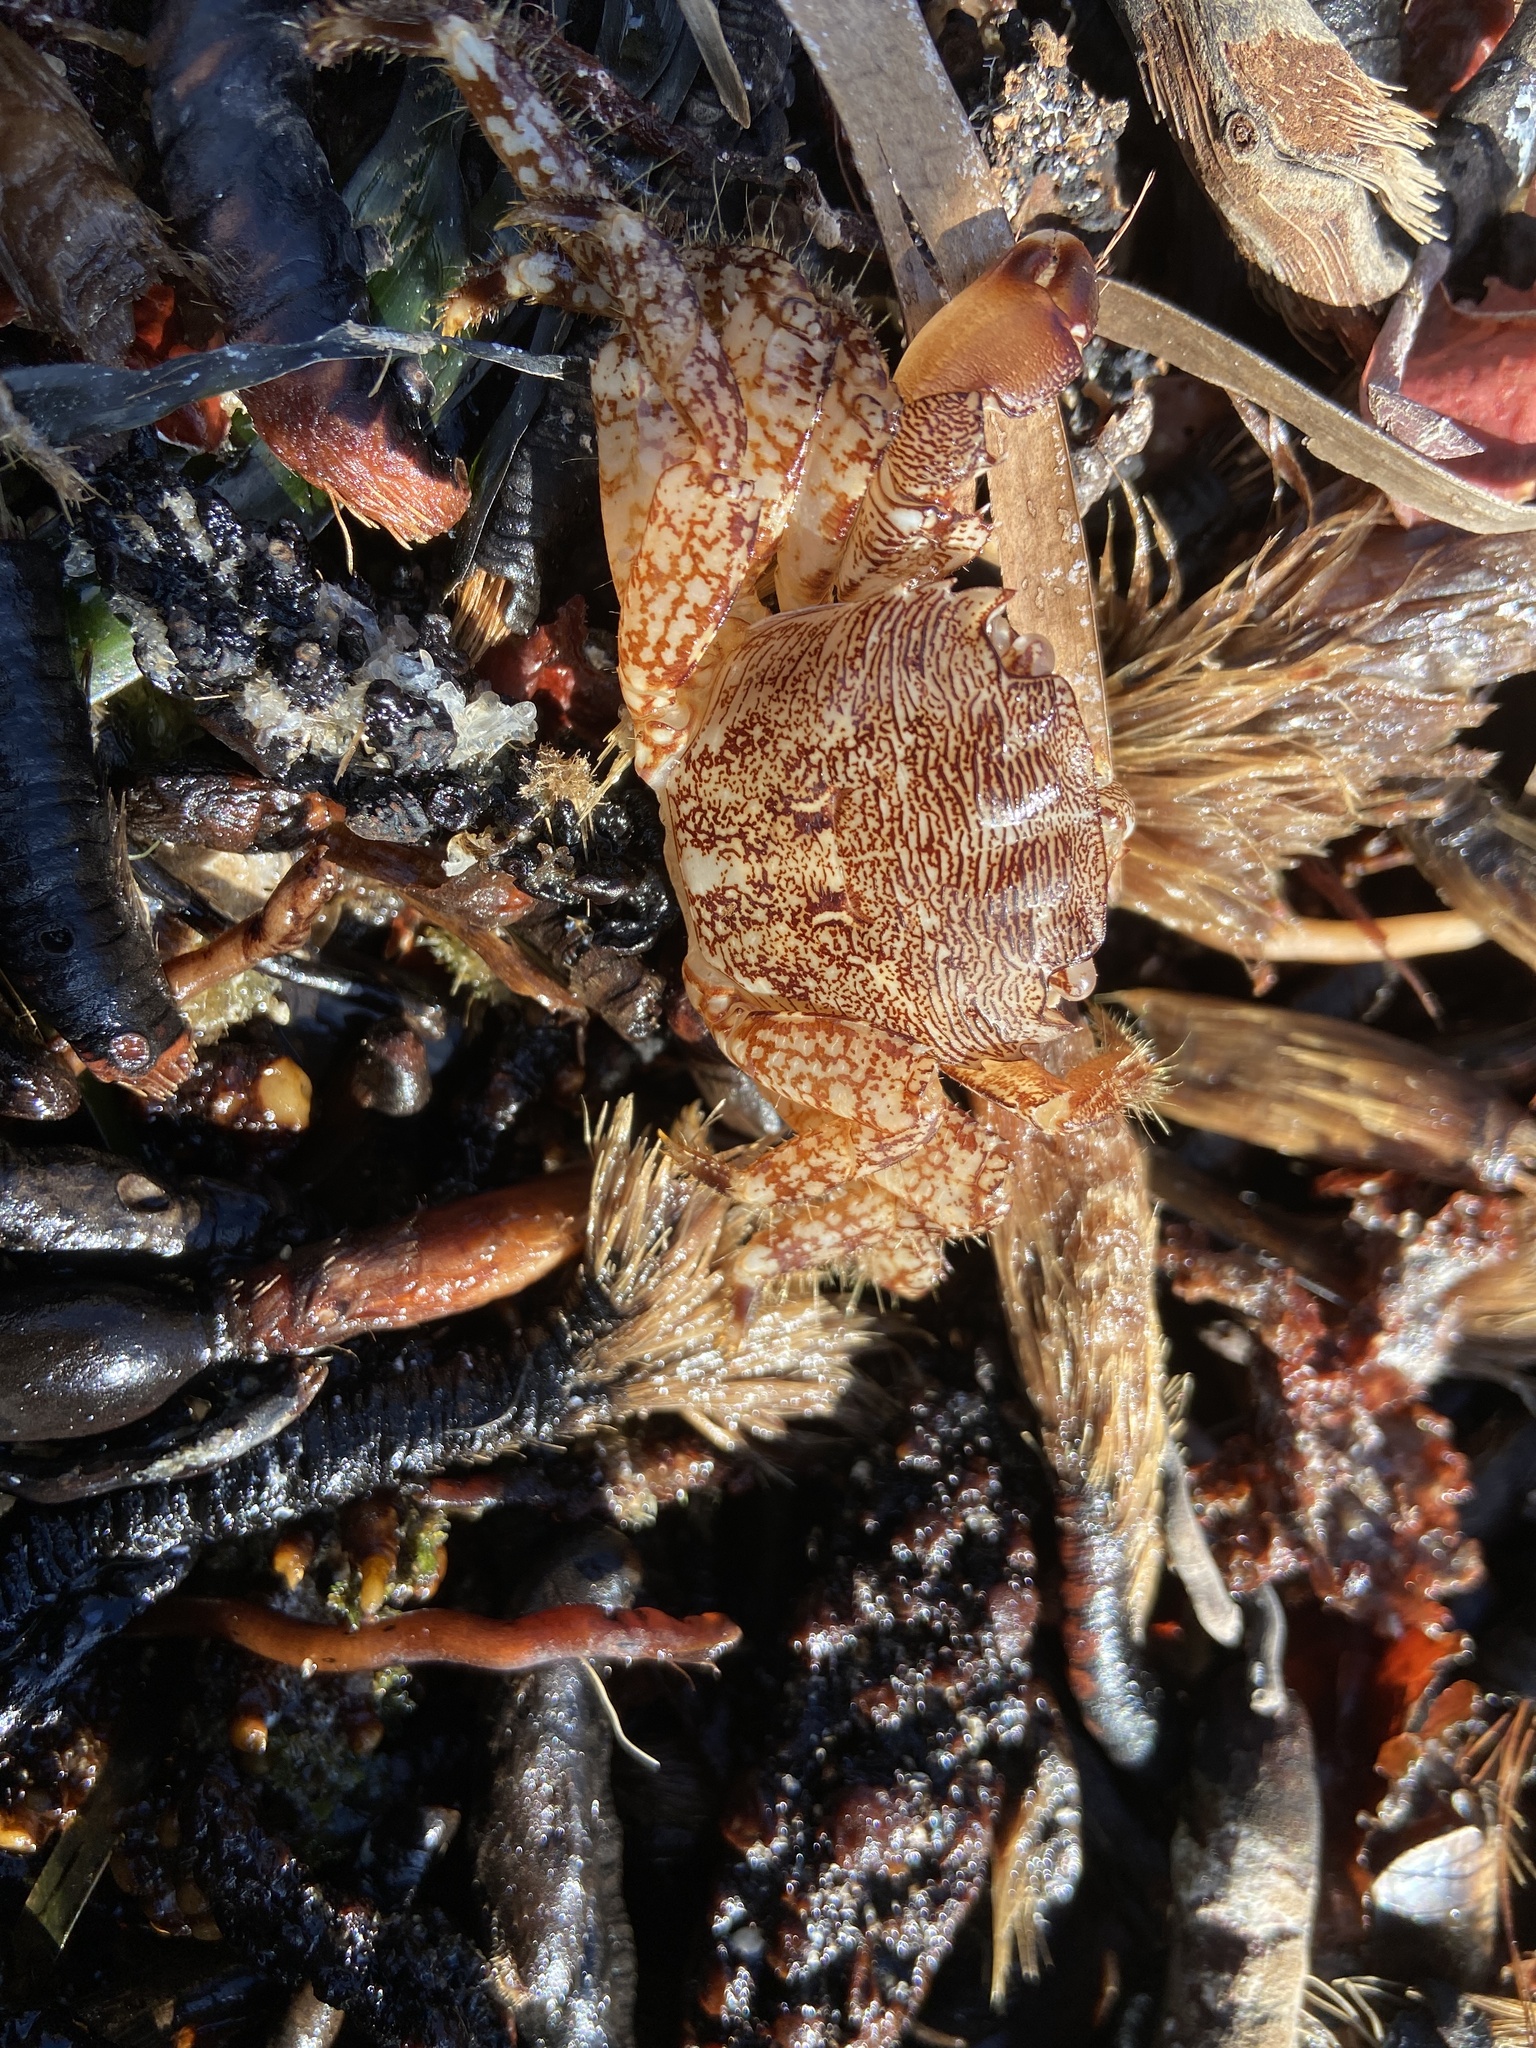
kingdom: Animalia
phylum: Arthropoda
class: Malacostraca
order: Decapoda
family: Grapsidae
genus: Pachygrapsus
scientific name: Pachygrapsus marmoratus
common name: Marbled rock crab
